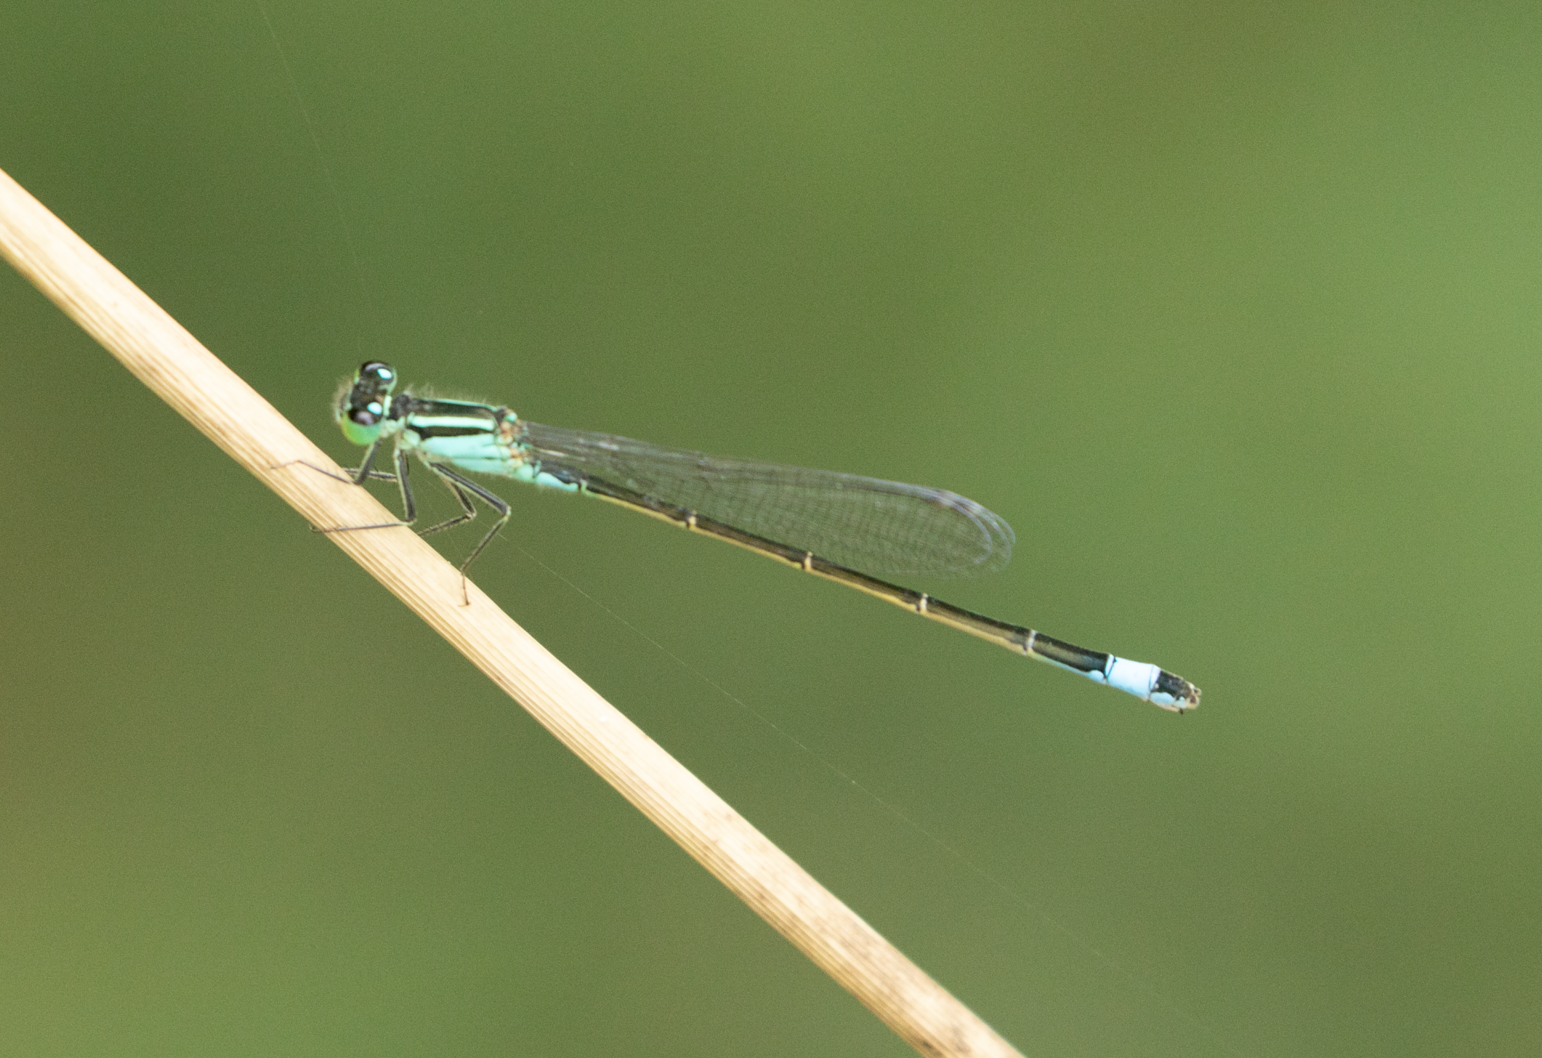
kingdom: Animalia
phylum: Arthropoda
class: Insecta
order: Odonata
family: Coenagrionidae
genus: Ischnura
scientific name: Ischnura elegans
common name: Blue-tailed damselfly
